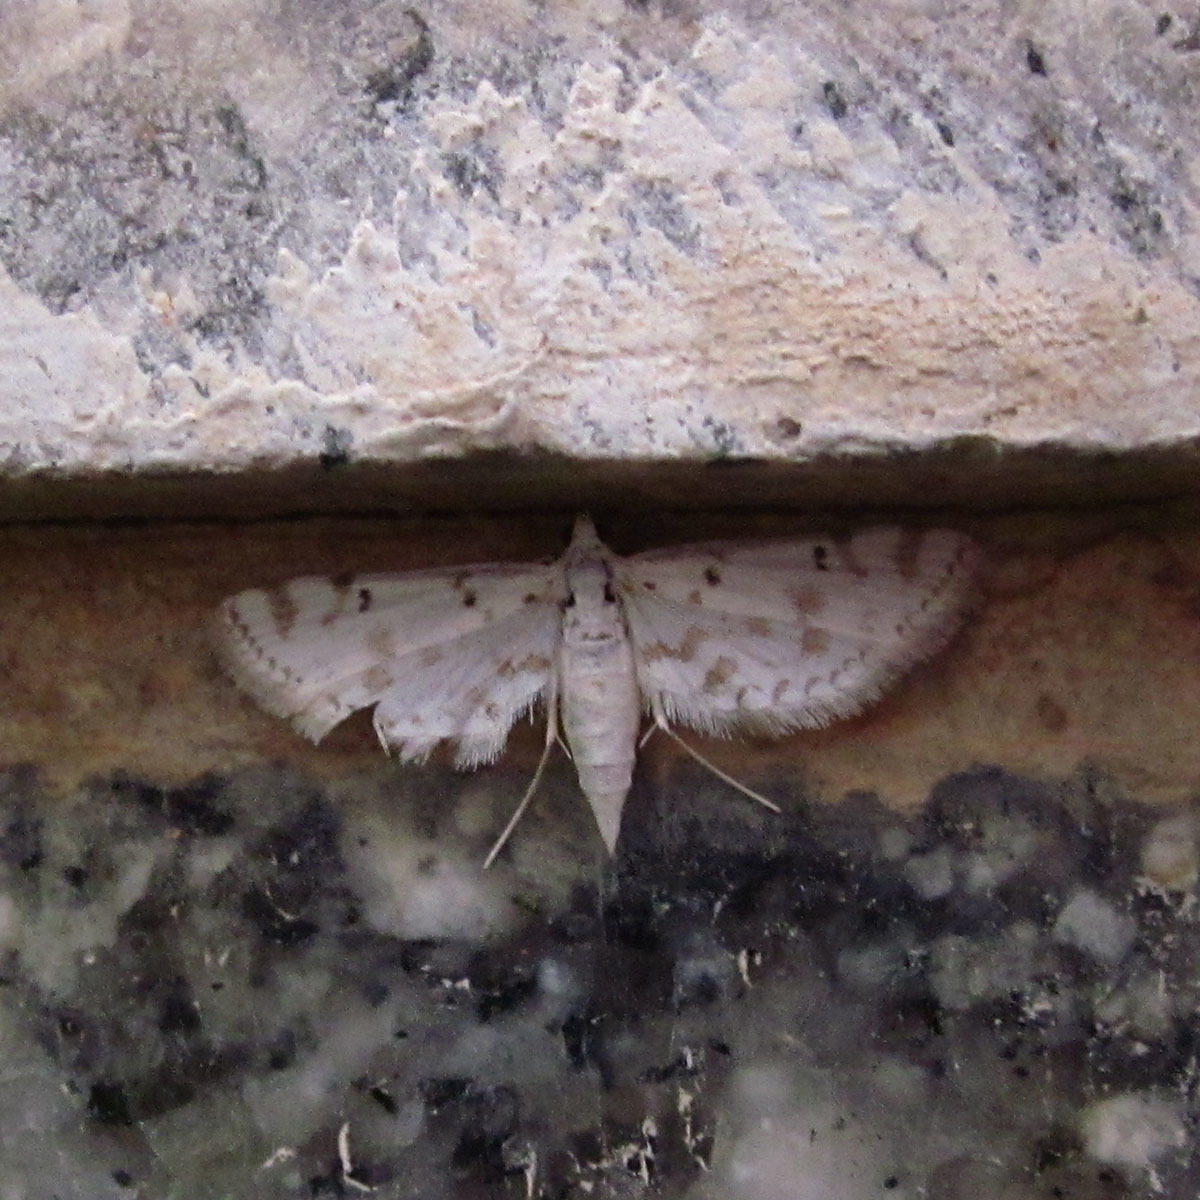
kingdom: Animalia
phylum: Arthropoda
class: Insecta
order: Lepidoptera
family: Crambidae
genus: Parapoynx
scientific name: Parapoynx stagnalis
